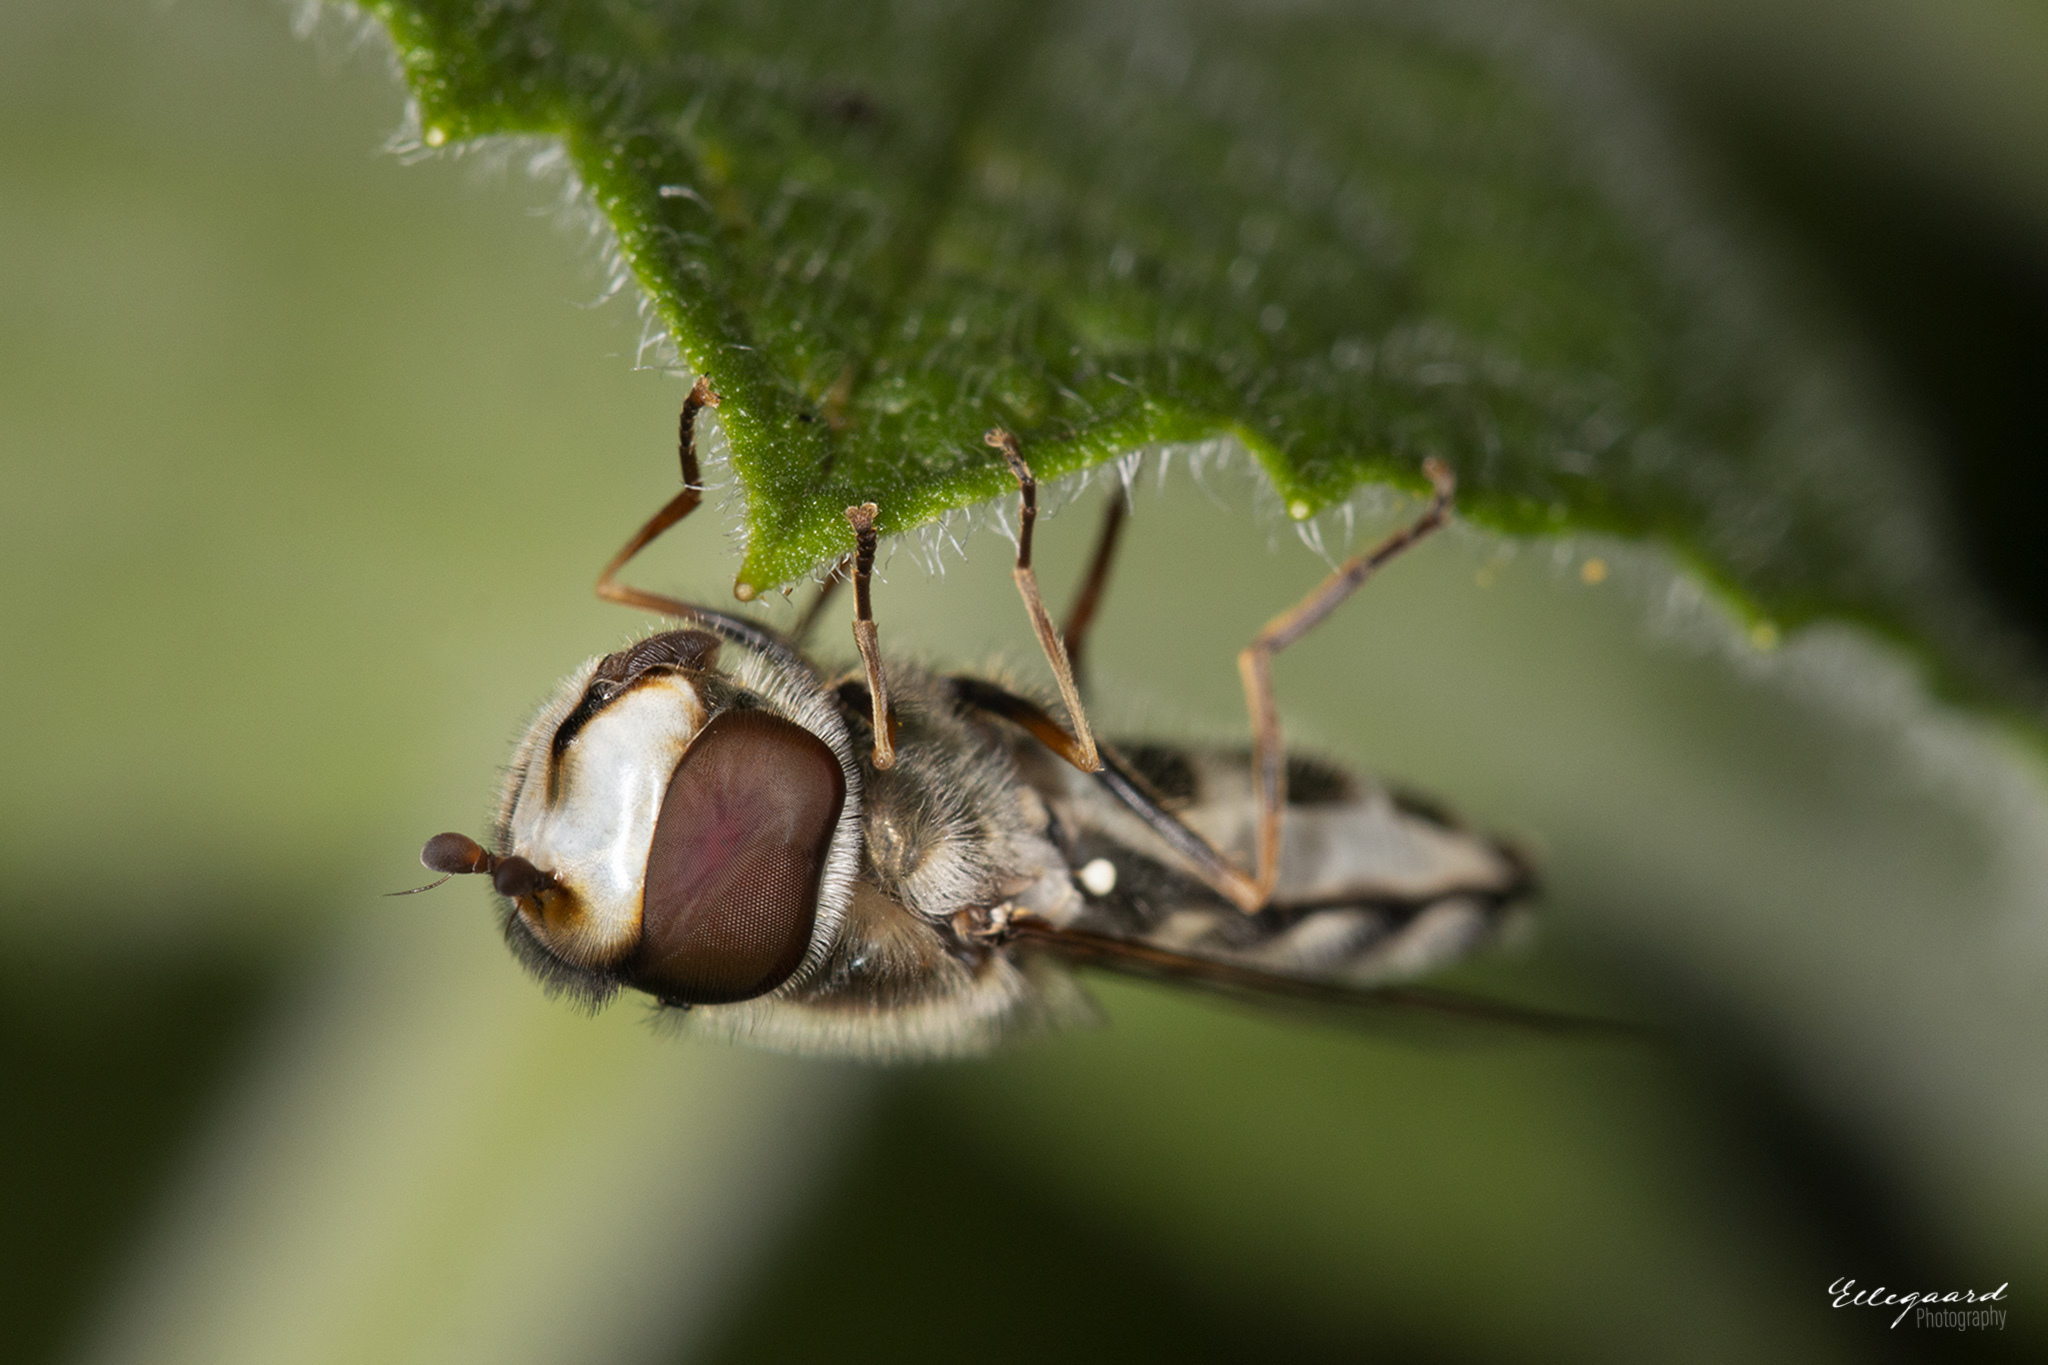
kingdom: Animalia
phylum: Arthropoda
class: Insecta
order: Diptera
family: Syrphidae
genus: Scaeva
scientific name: Scaeva pyrastri
